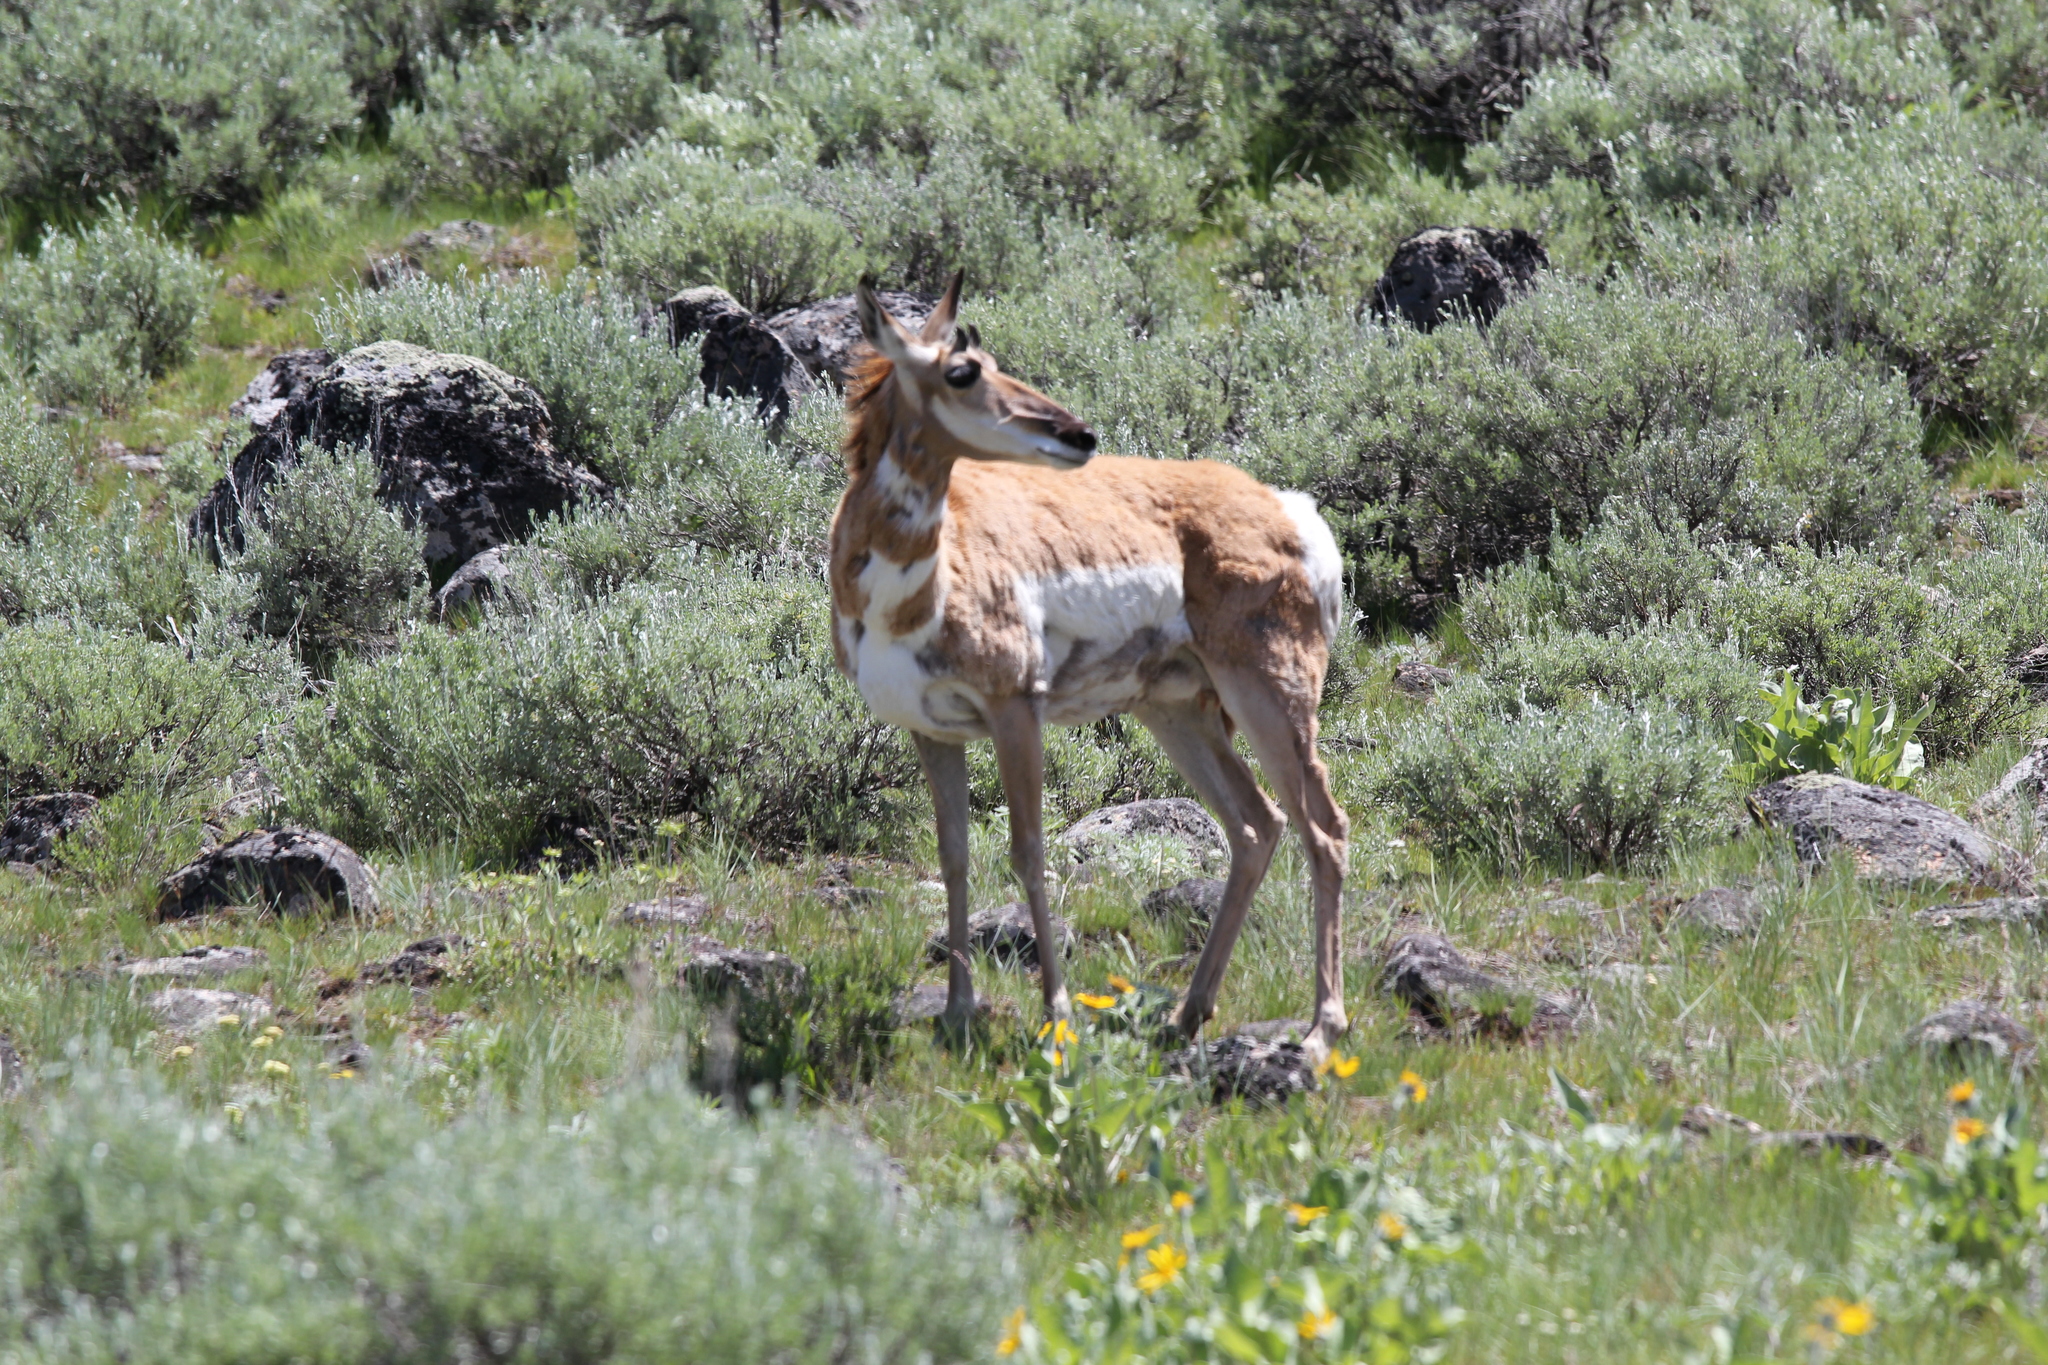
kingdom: Animalia
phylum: Chordata
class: Mammalia
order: Artiodactyla
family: Antilocapridae
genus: Antilocapra
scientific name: Antilocapra americana
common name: Pronghorn
